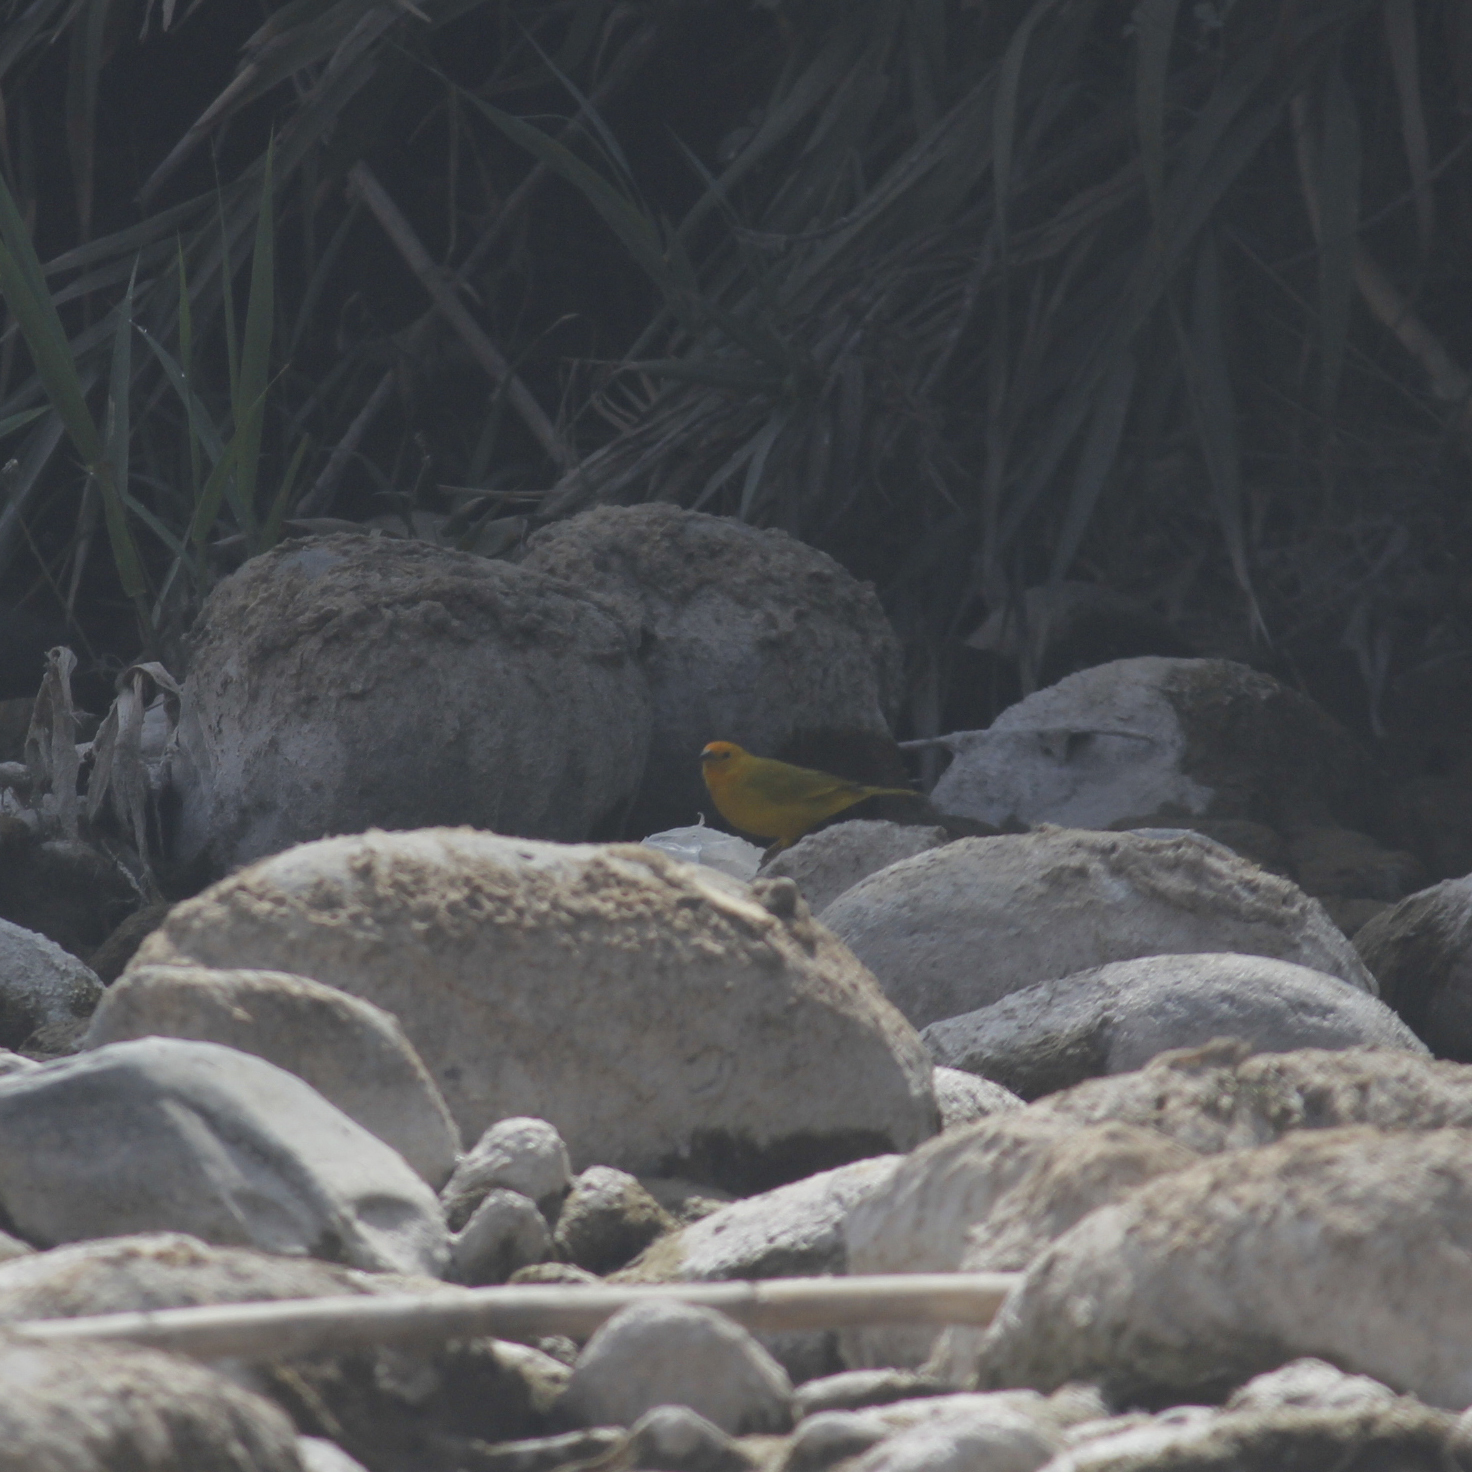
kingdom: Animalia
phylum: Chordata
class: Aves
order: Passeriformes
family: Thraupidae
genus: Sicalis
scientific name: Sicalis flaveola
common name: Saffron finch
